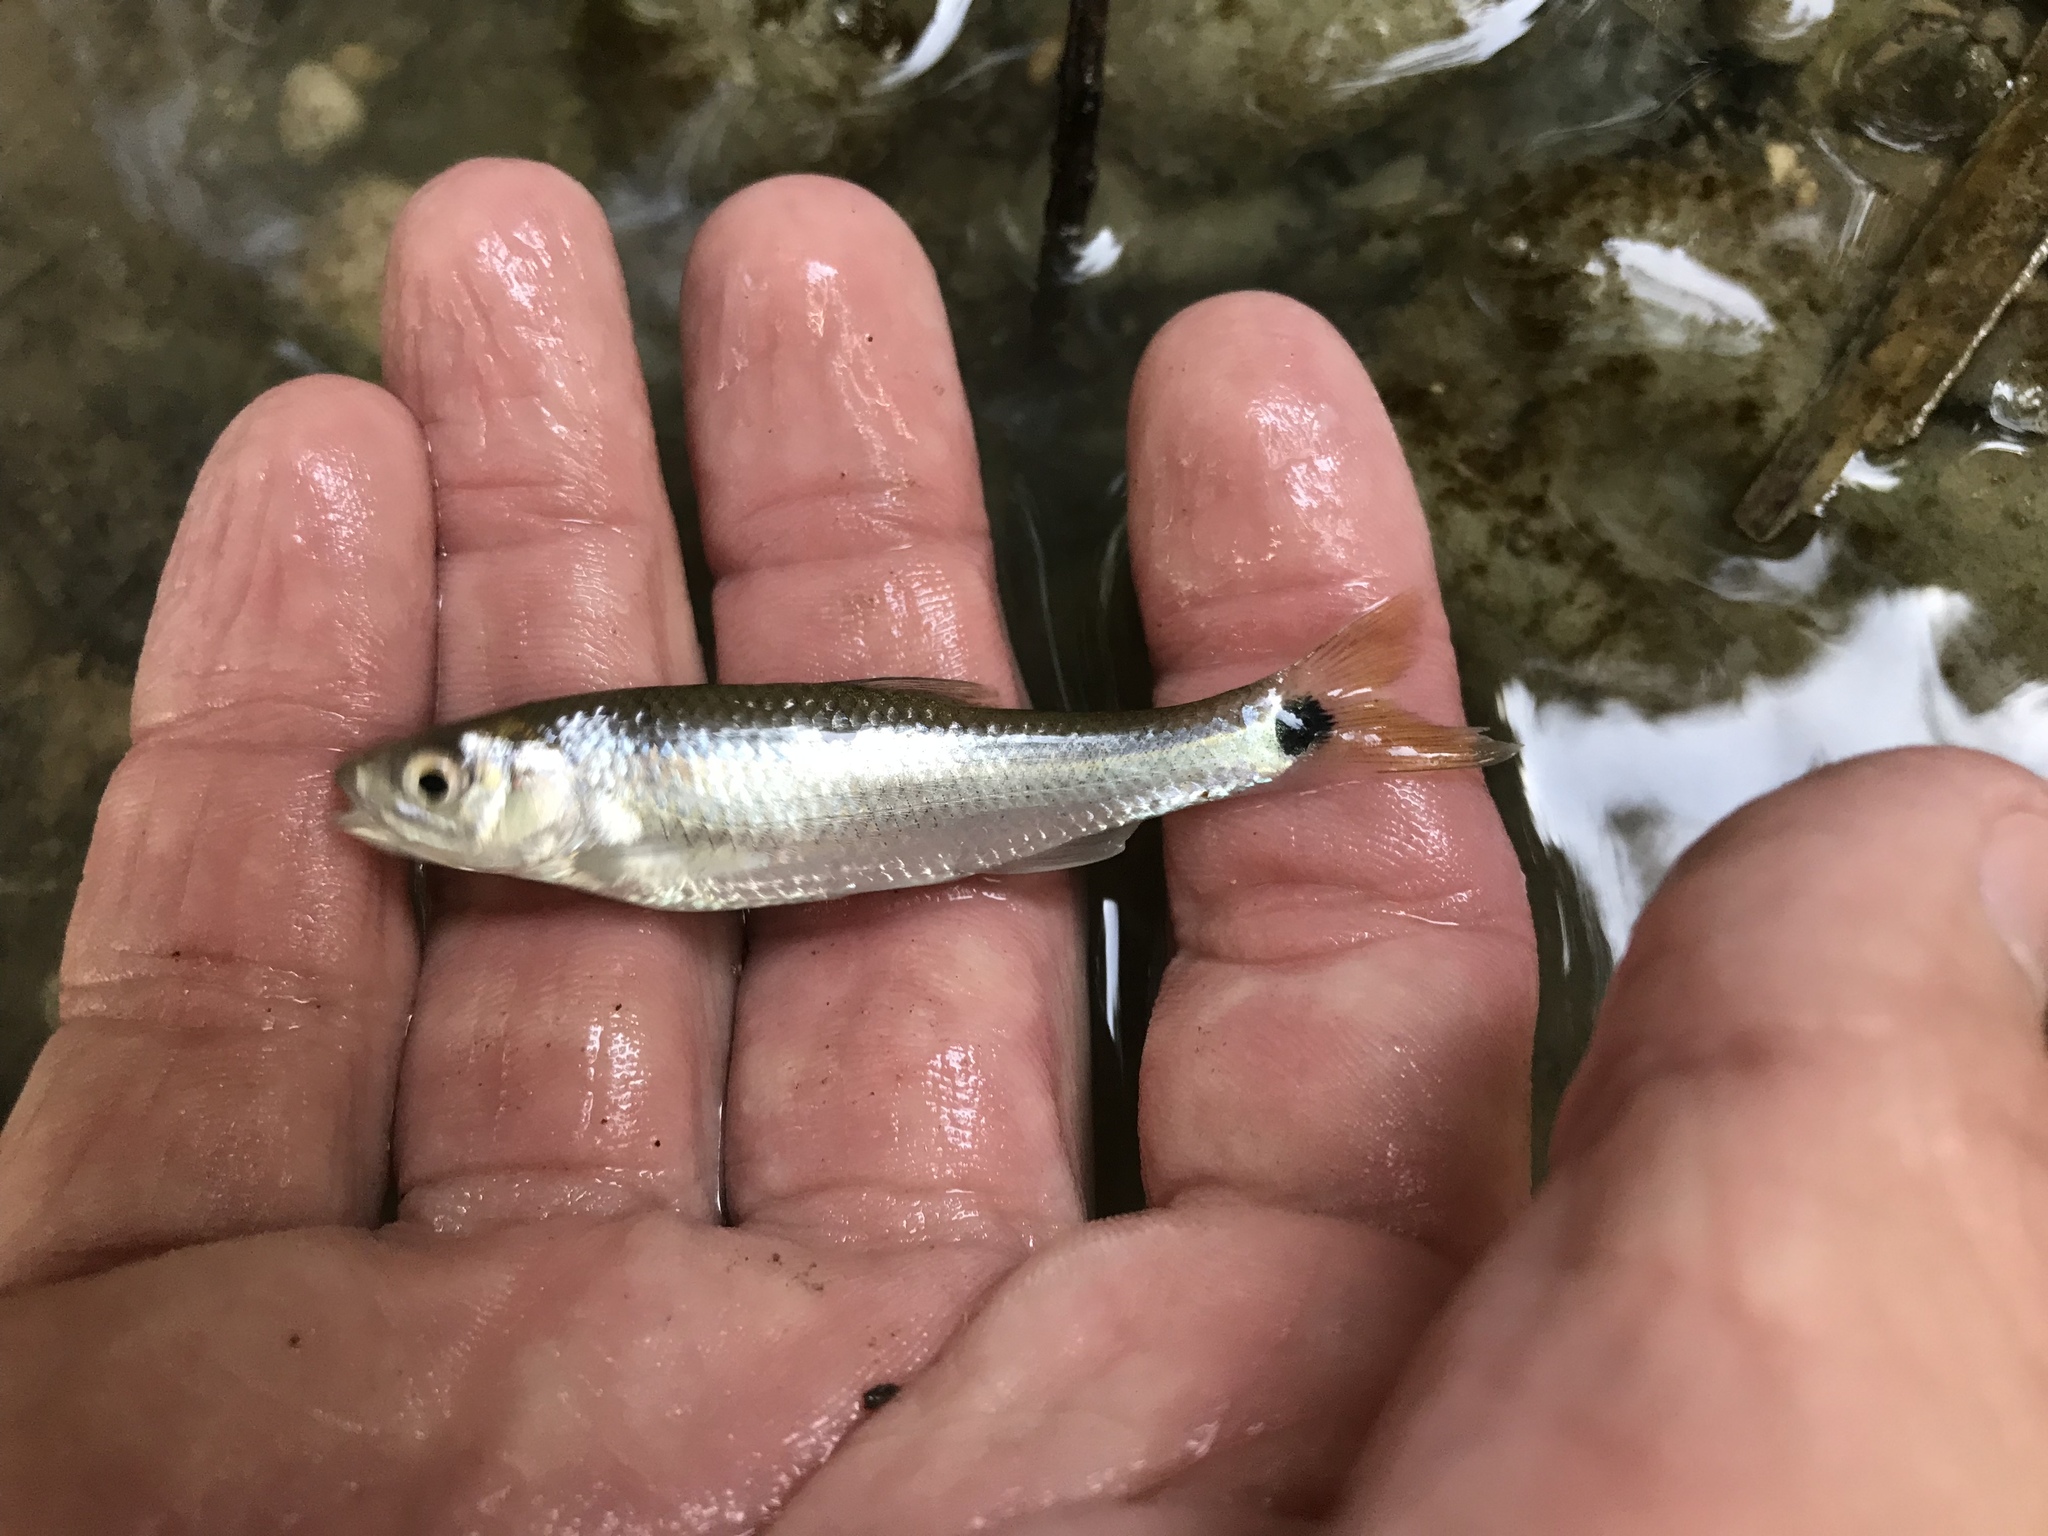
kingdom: Animalia
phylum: Chordata
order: Cypriniformes
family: Cyprinidae
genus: Cyprinella
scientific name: Cyprinella venusta
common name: Blacktail shiner
